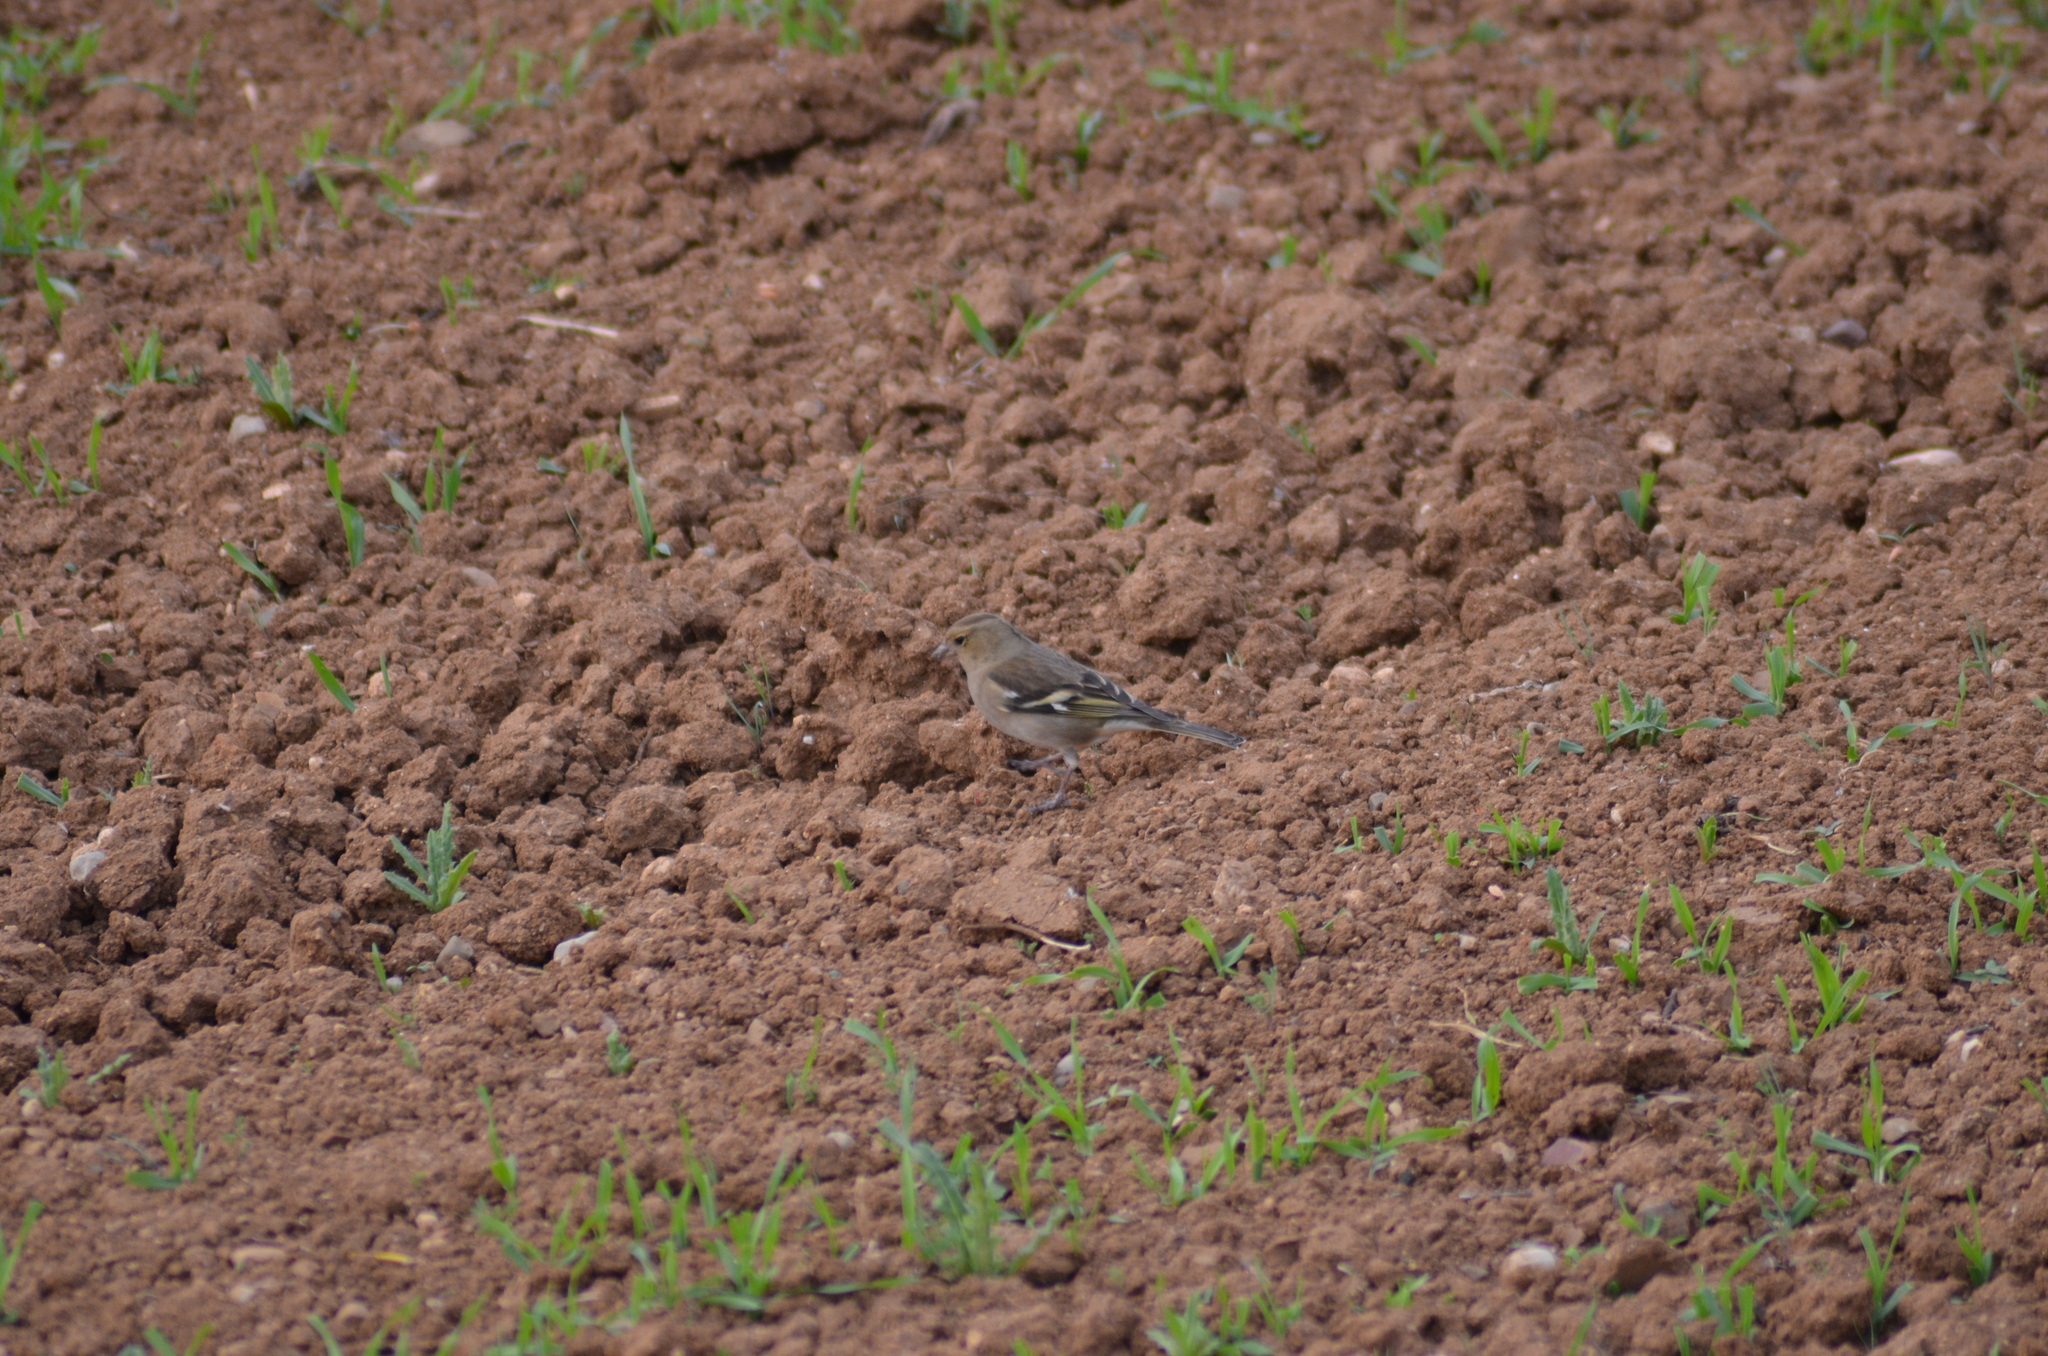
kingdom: Animalia
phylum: Chordata
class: Aves
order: Passeriformes
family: Fringillidae
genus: Fringilla
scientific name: Fringilla coelebs
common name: Common chaffinch
